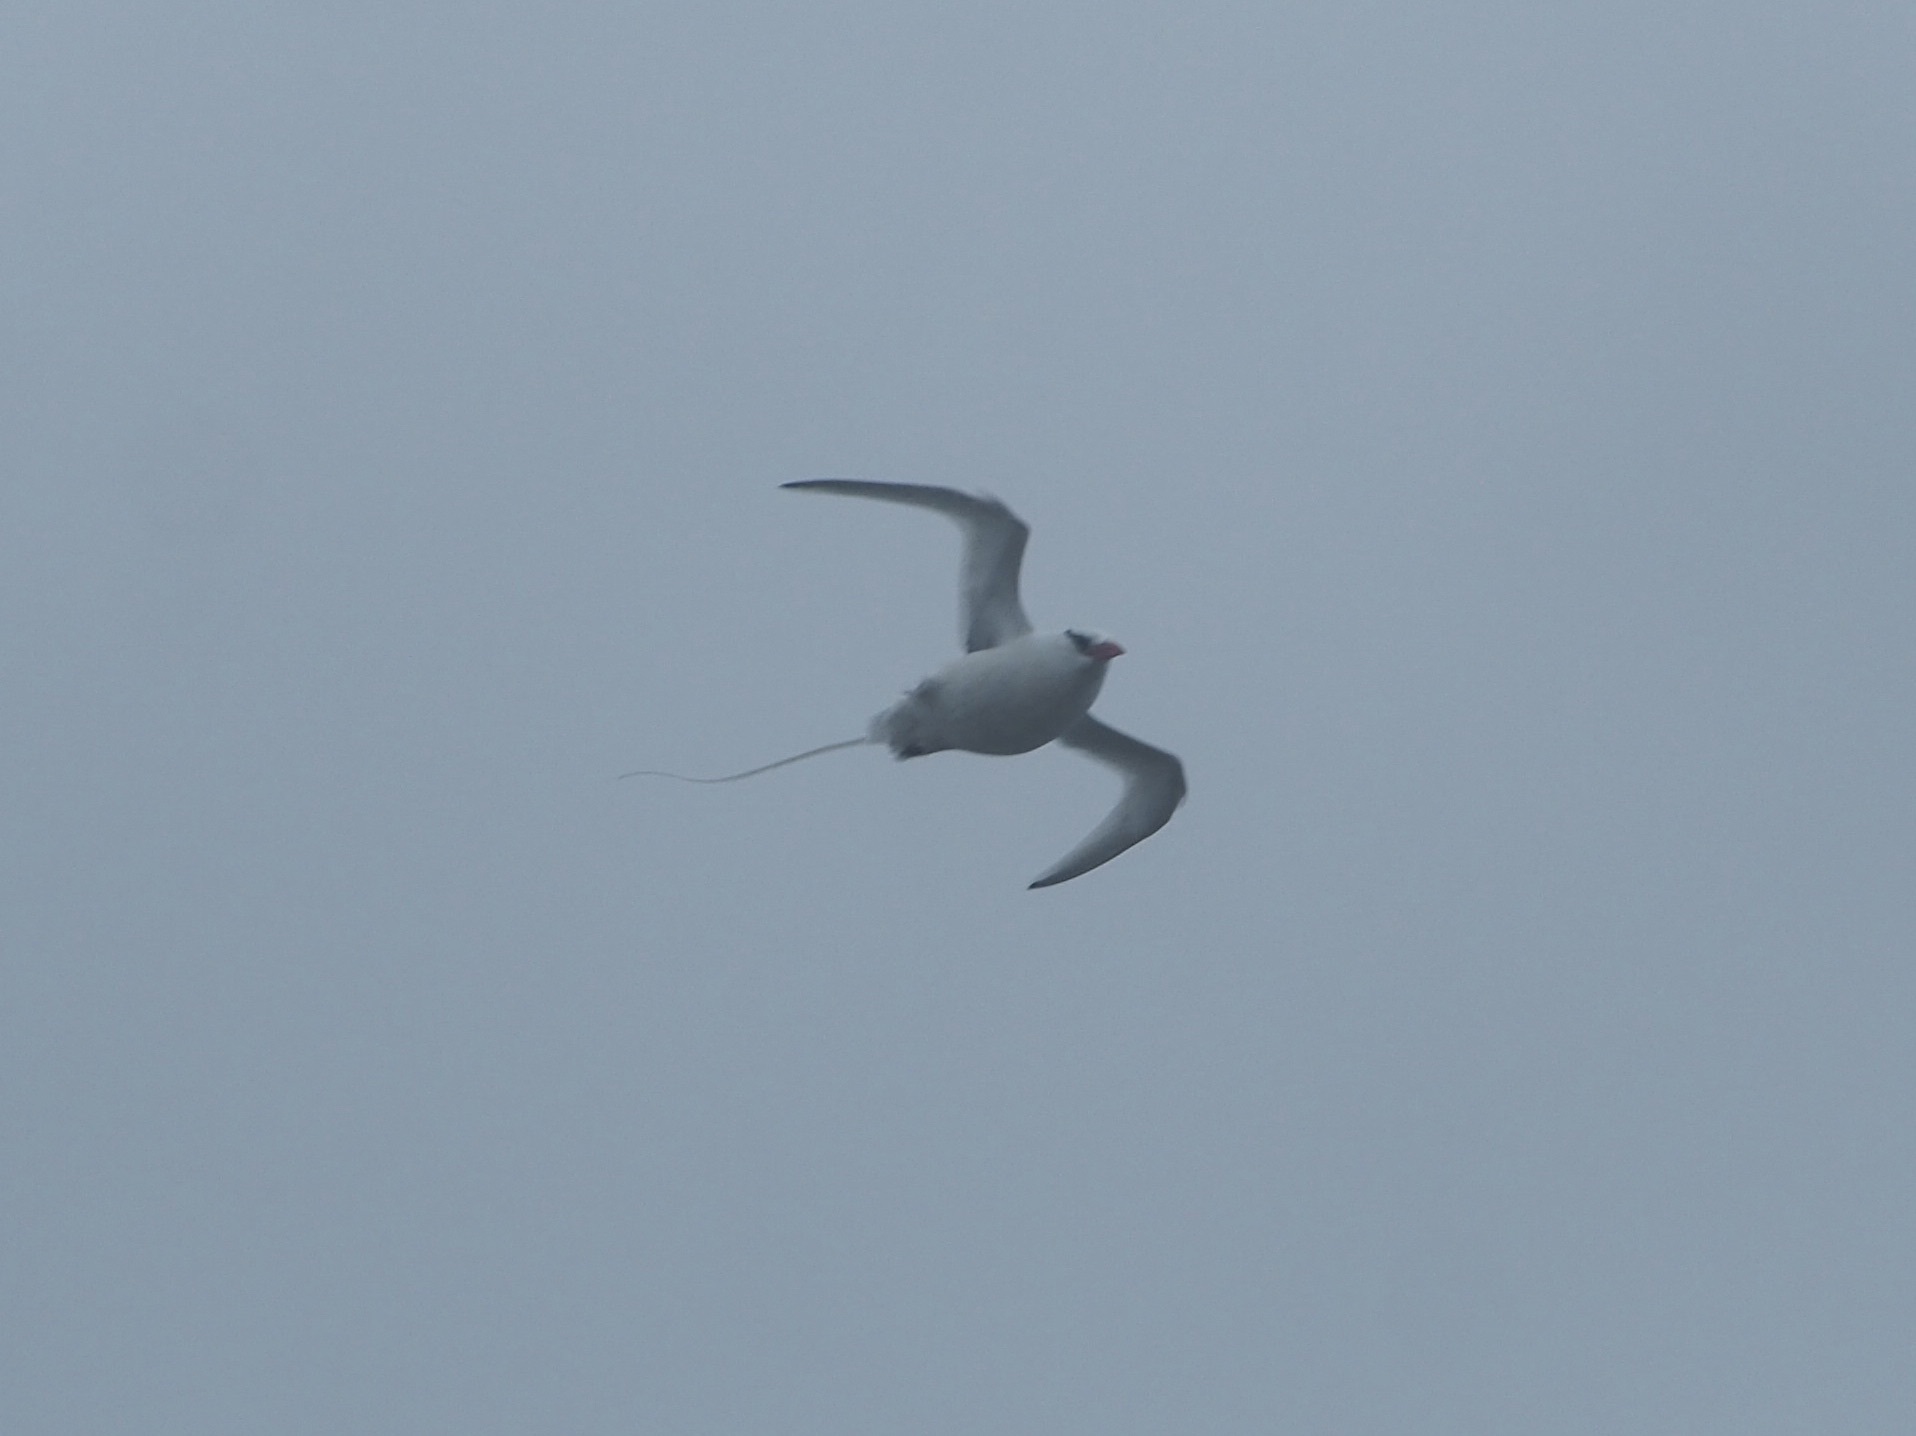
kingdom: Animalia
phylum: Chordata
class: Aves
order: Phaethontiformes
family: Phaethontidae
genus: Phaethon
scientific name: Phaethon aethereus
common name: Red-billed tropicbird
